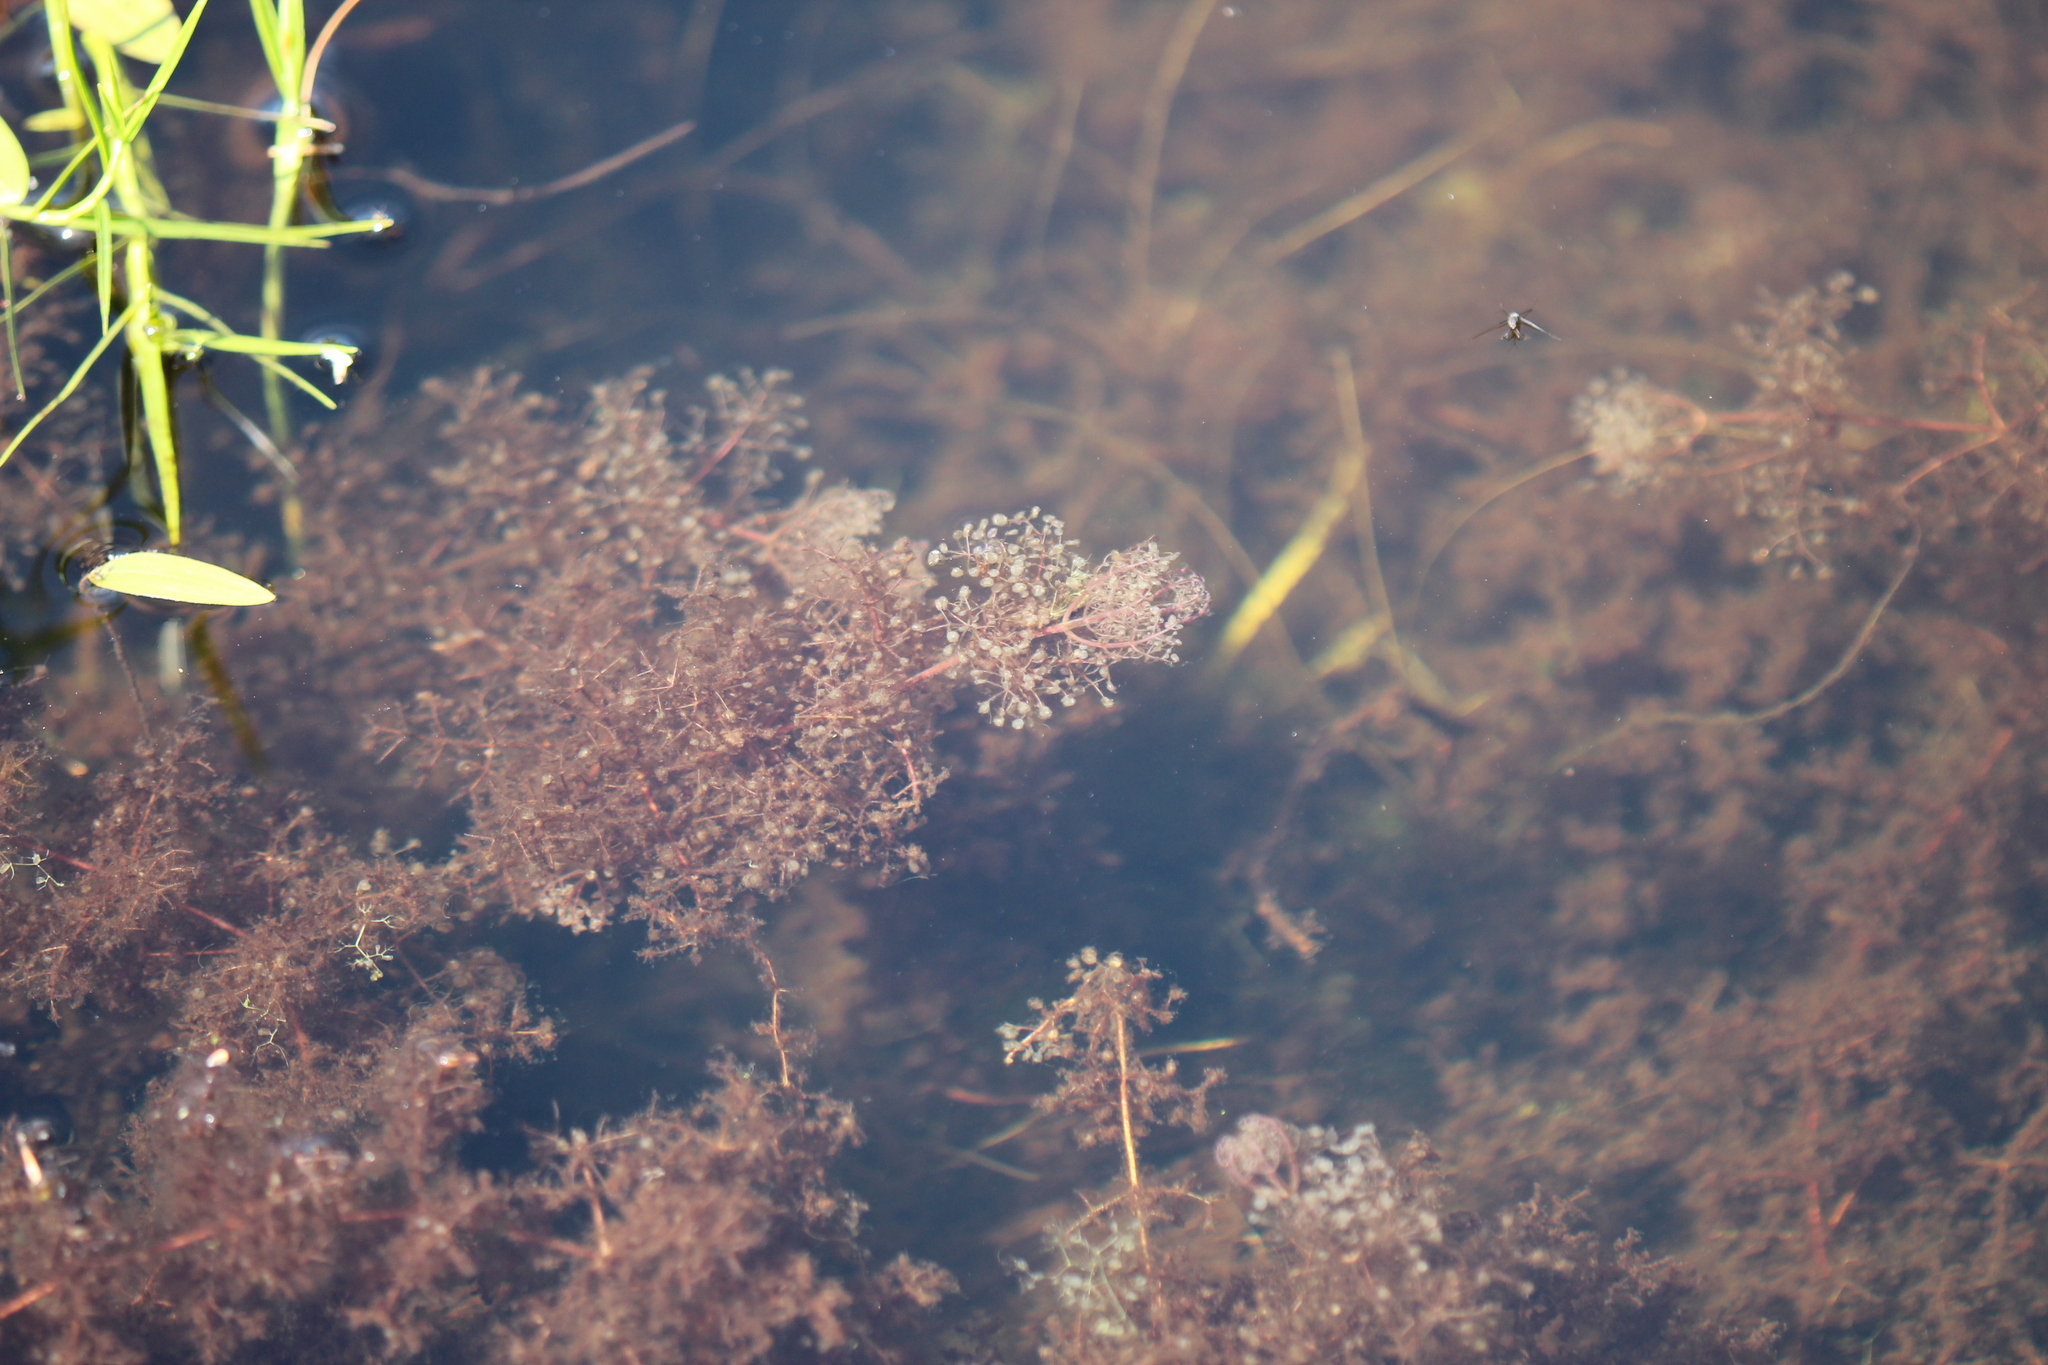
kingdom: Plantae
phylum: Tracheophyta
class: Magnoliopsida
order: Lamiales
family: Lentibulariaceae
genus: Utricularia
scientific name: Utricularia purpurea
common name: Eastern purple bladderwort
